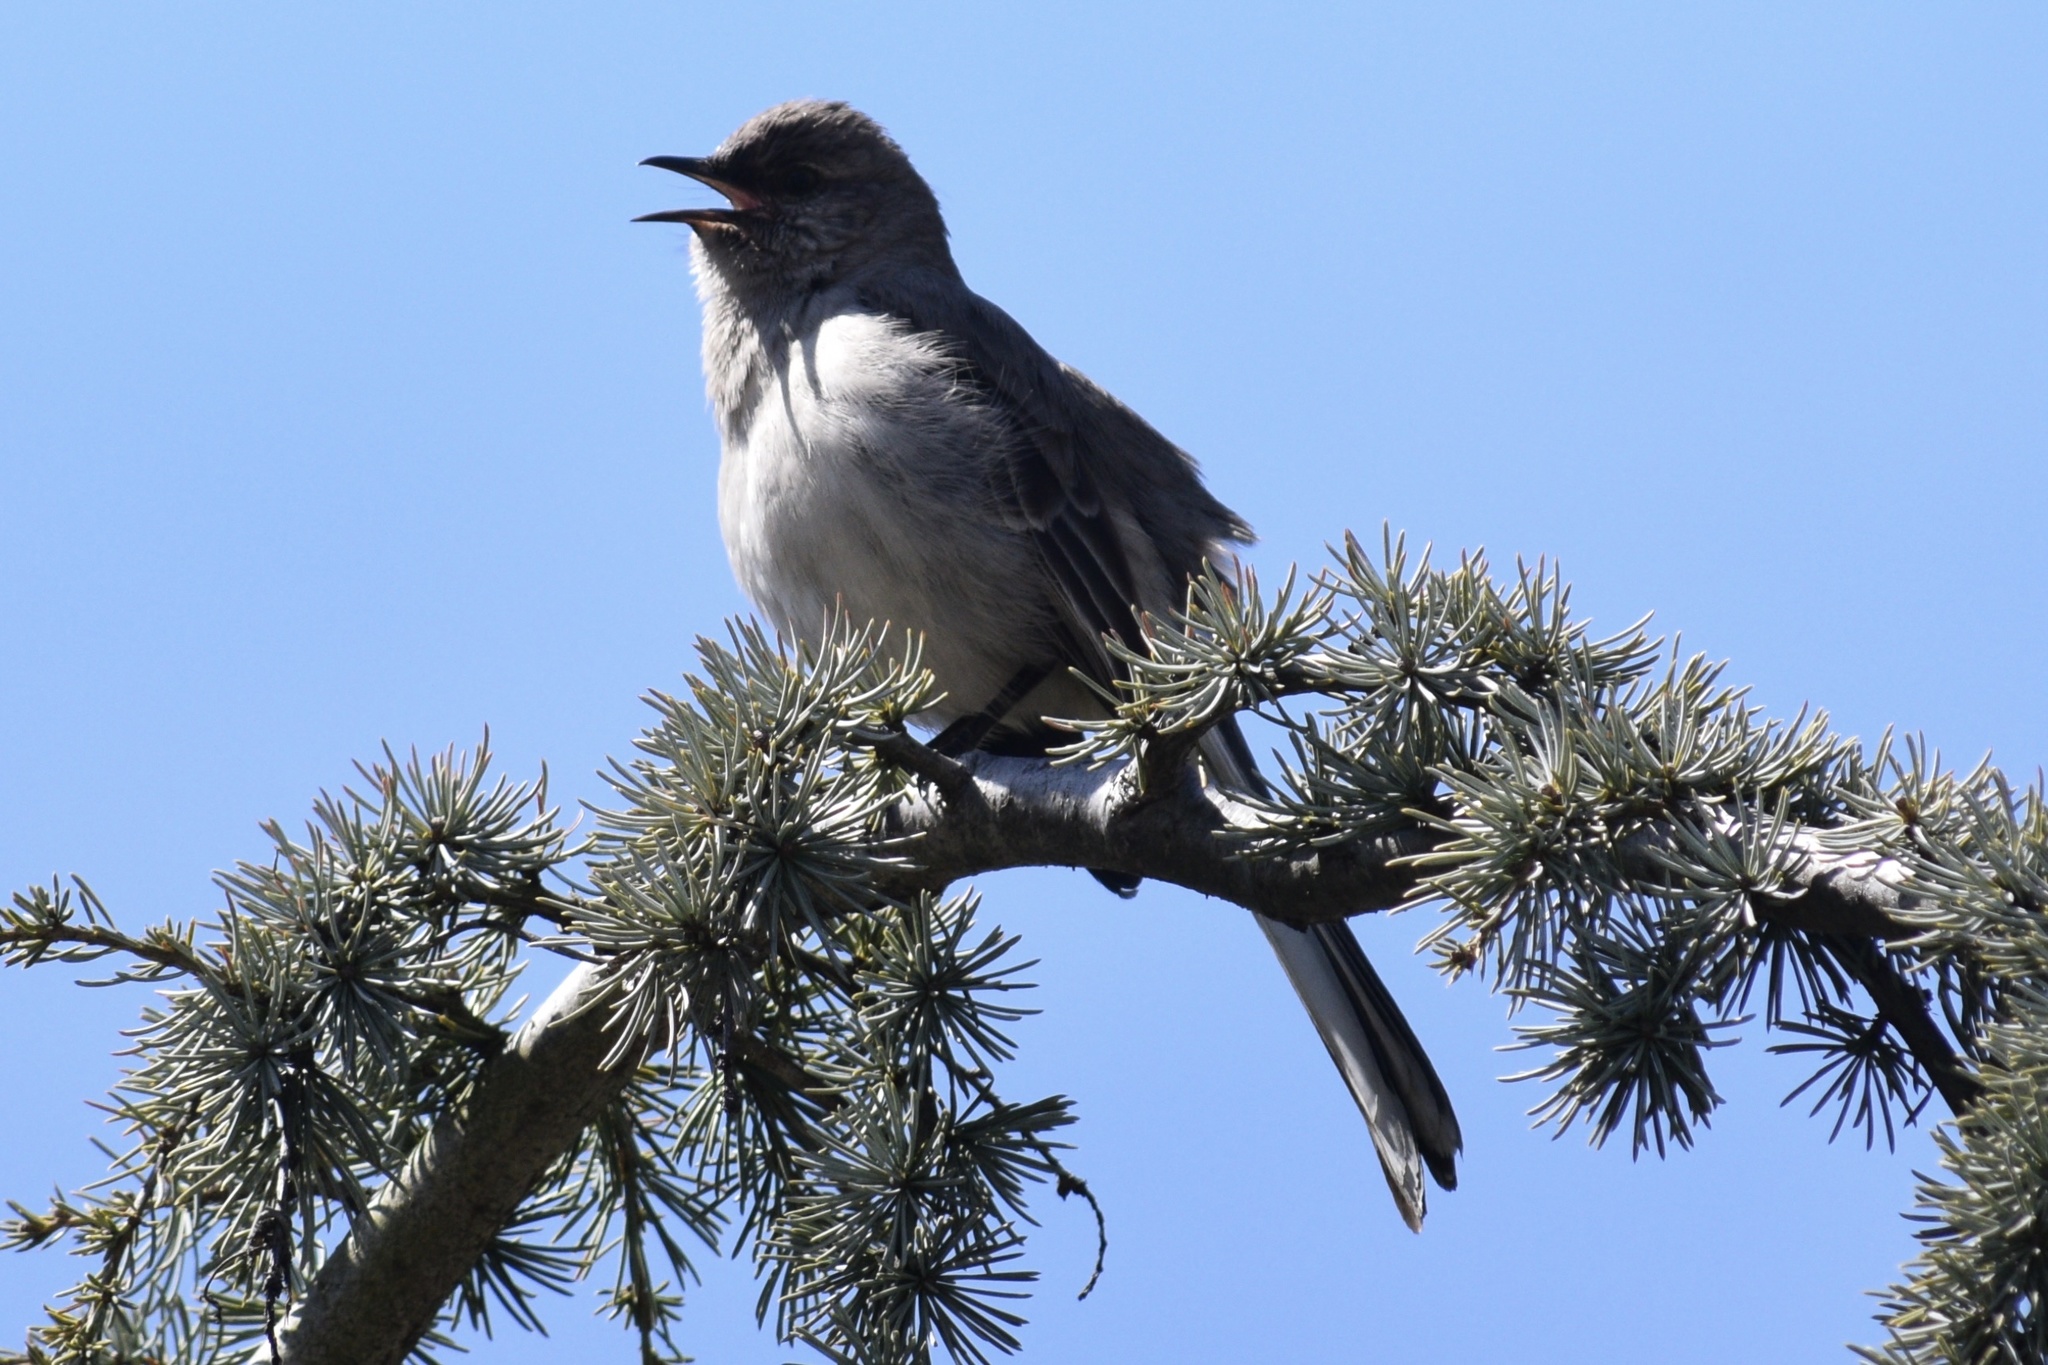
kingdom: Animalia
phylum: Chordata
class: Aves
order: Passeriformes
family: Mimidae
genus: Mimus
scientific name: Mimus polyglottos
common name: Northern mockingbird
